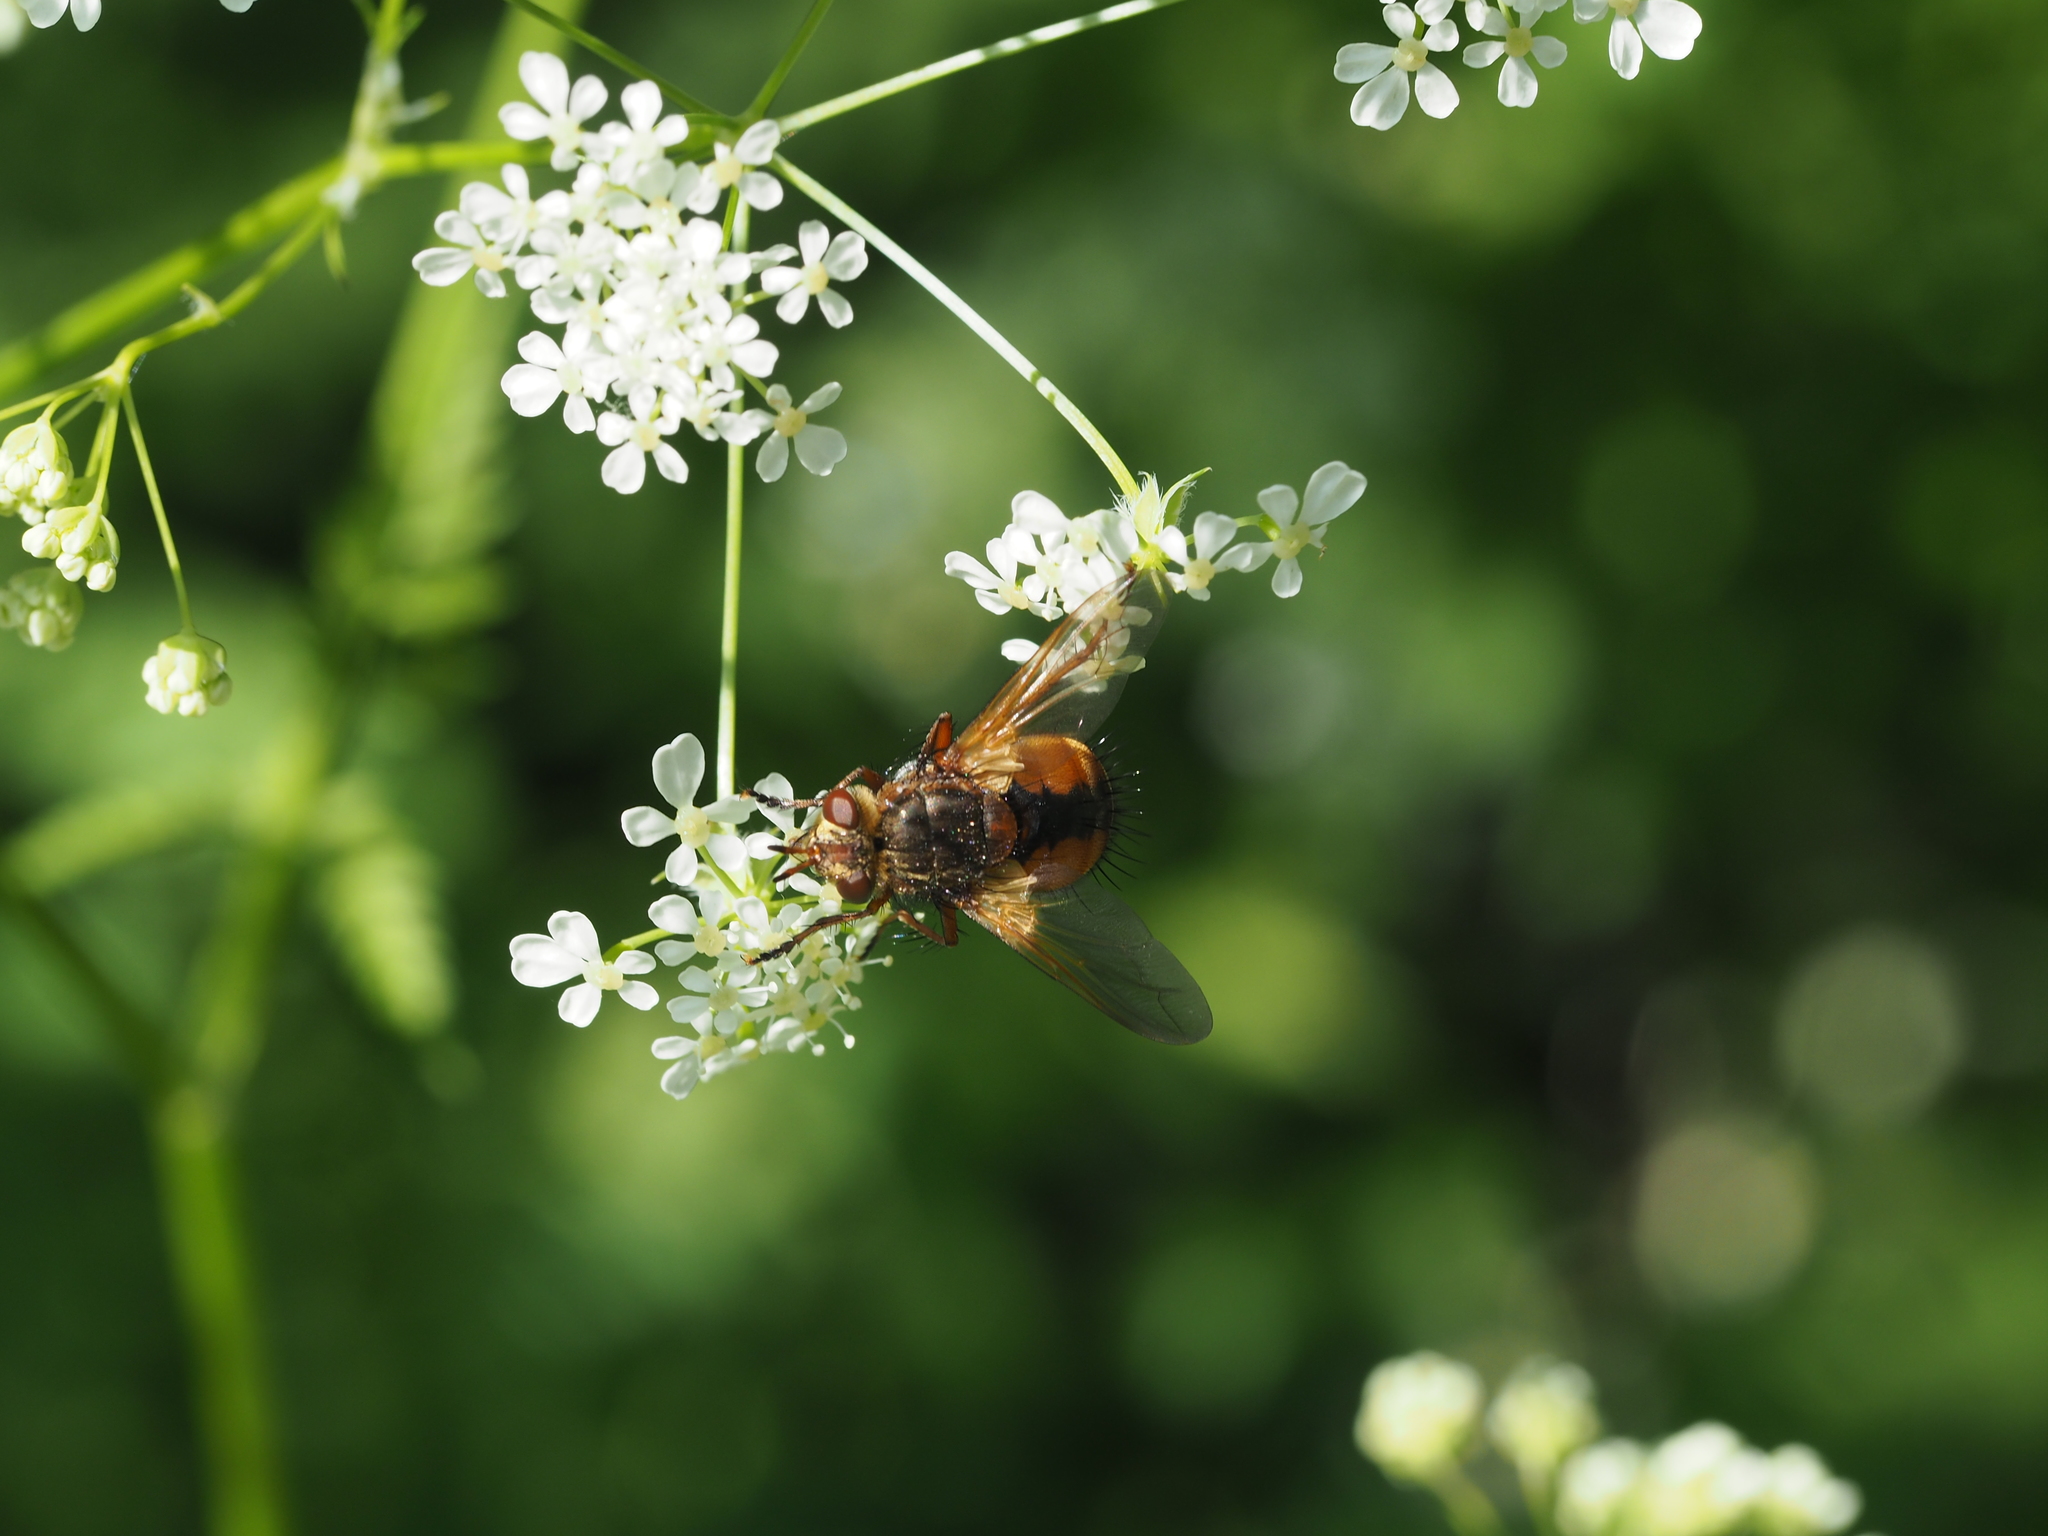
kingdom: Animalia
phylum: Arthropoda
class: Insecta
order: Diptera
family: Tachinidae
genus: Tachina
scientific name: Tachina
